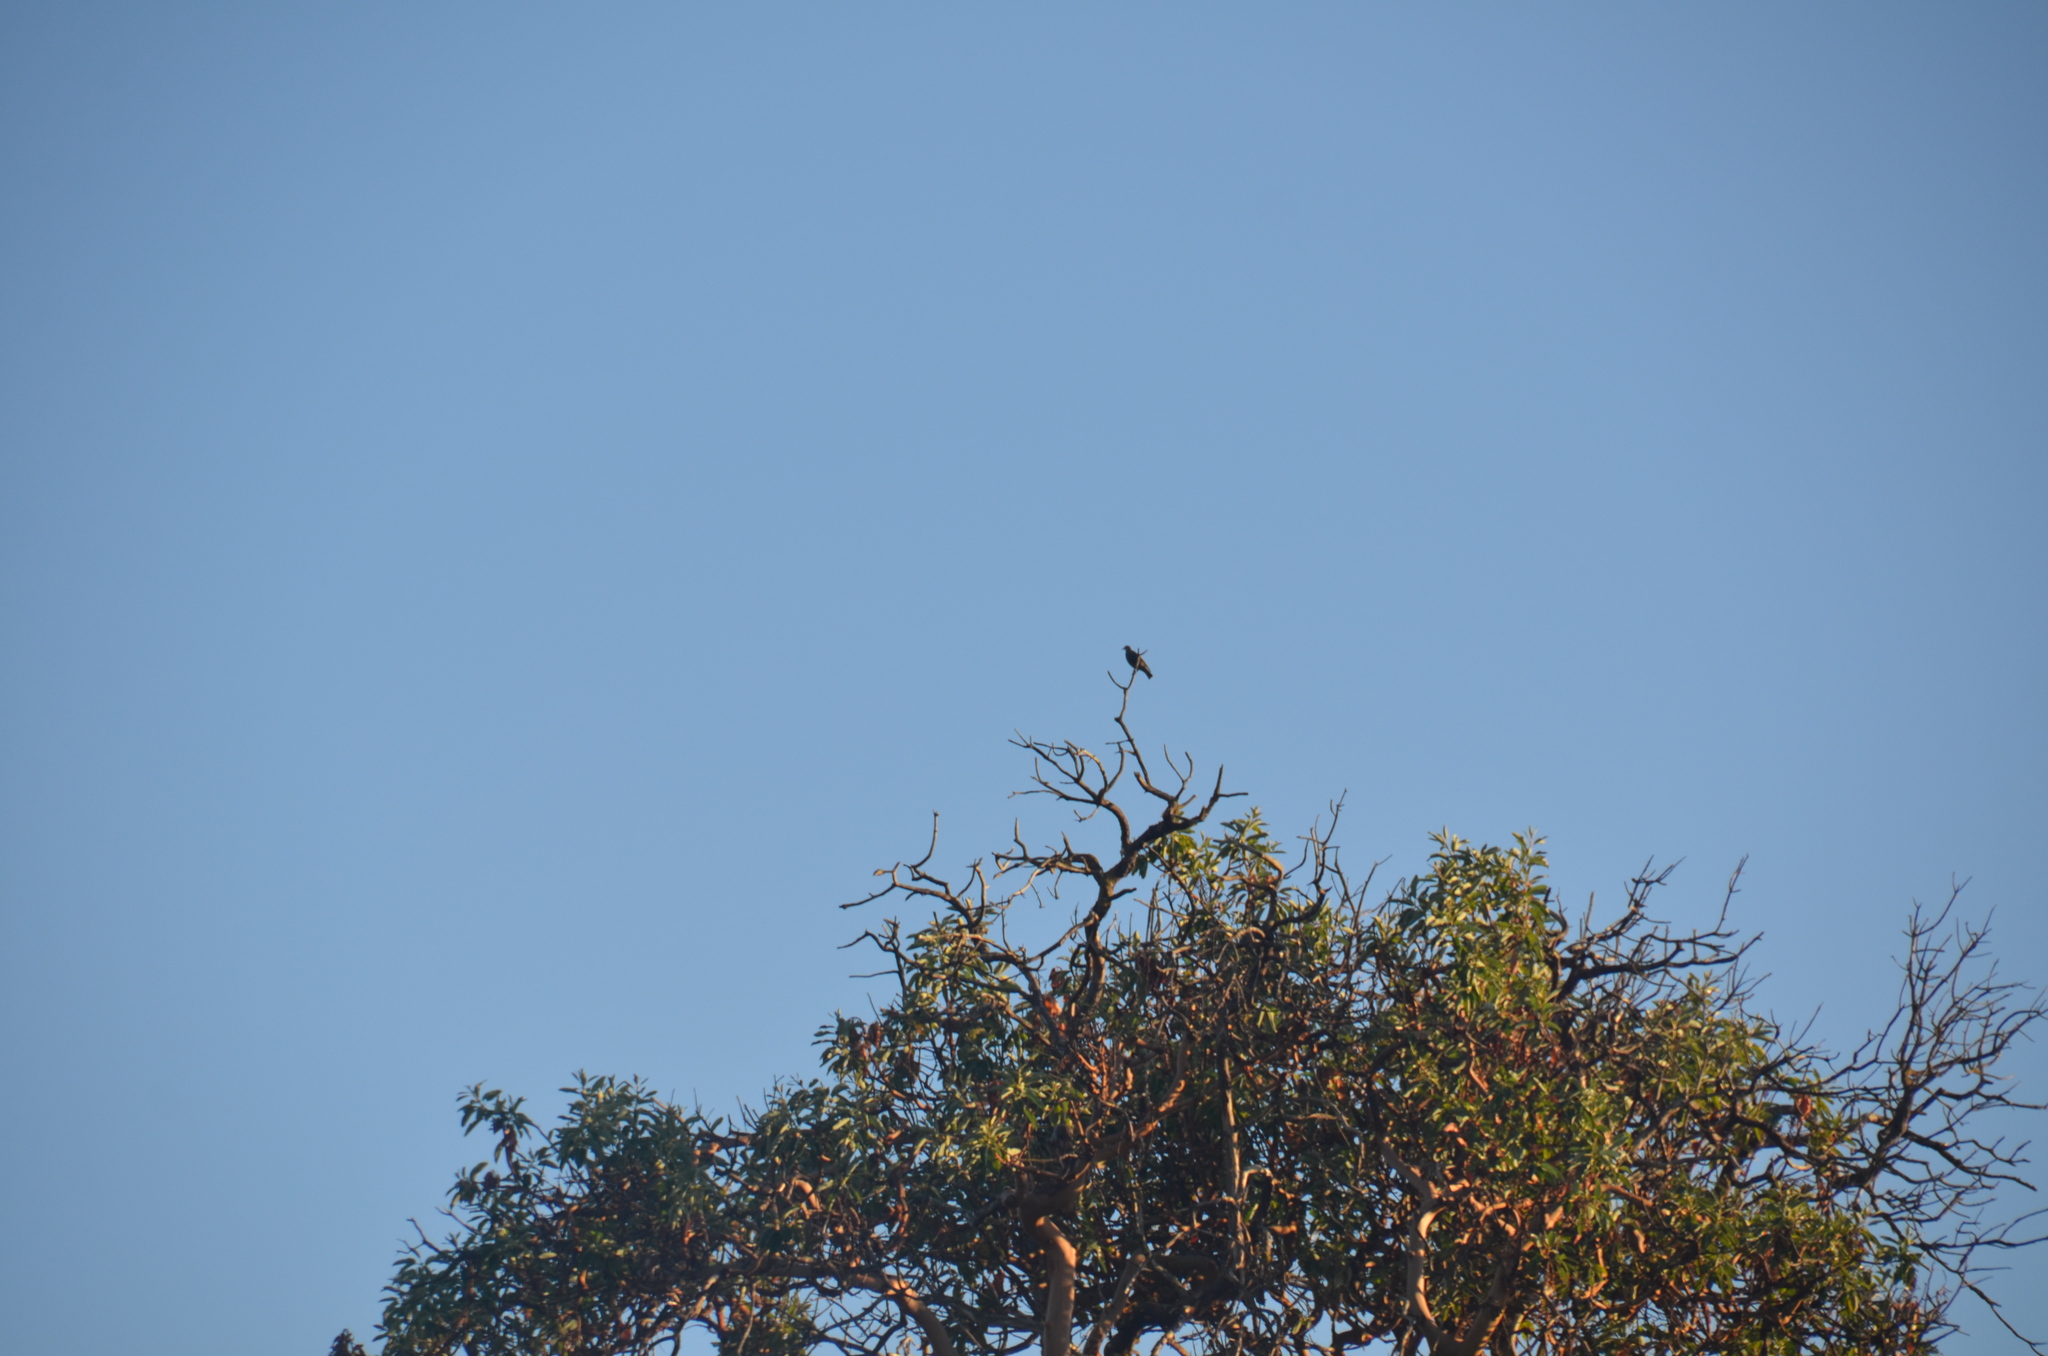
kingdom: Animalia
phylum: Chordata
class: Aves
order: Passeriformes
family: Sturnidae
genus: Sturnus
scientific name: Sturnus vulgaris
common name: Common starling
